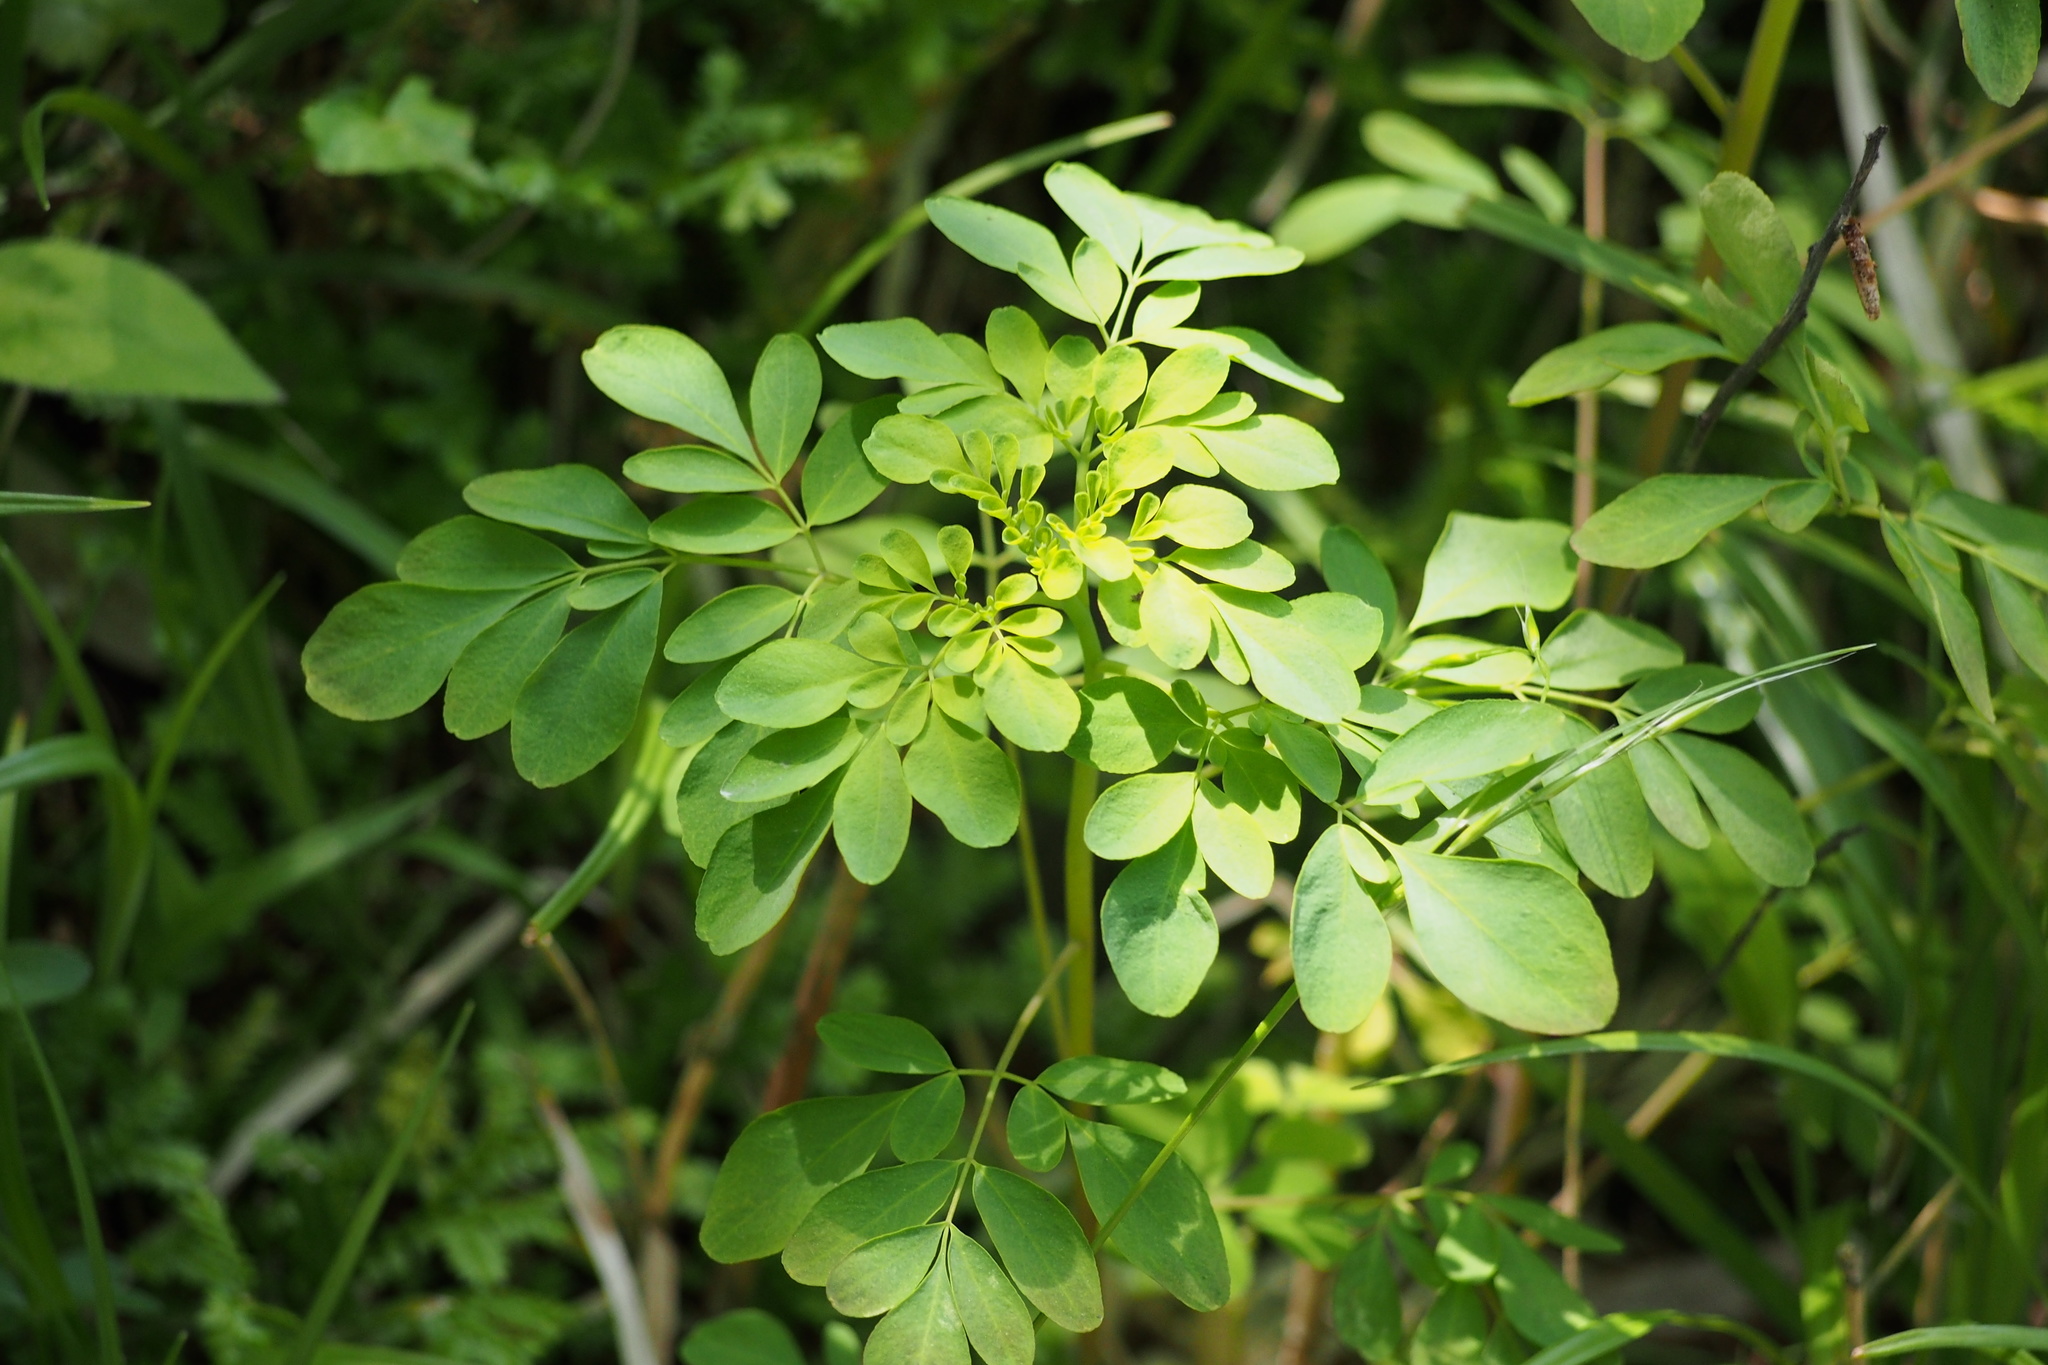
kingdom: Plantae
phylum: Tracheophyta
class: Magnoliopsida
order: Sapindales
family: Rutaceae
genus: Boenninghausenia
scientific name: Boenninghausenia albiflora
